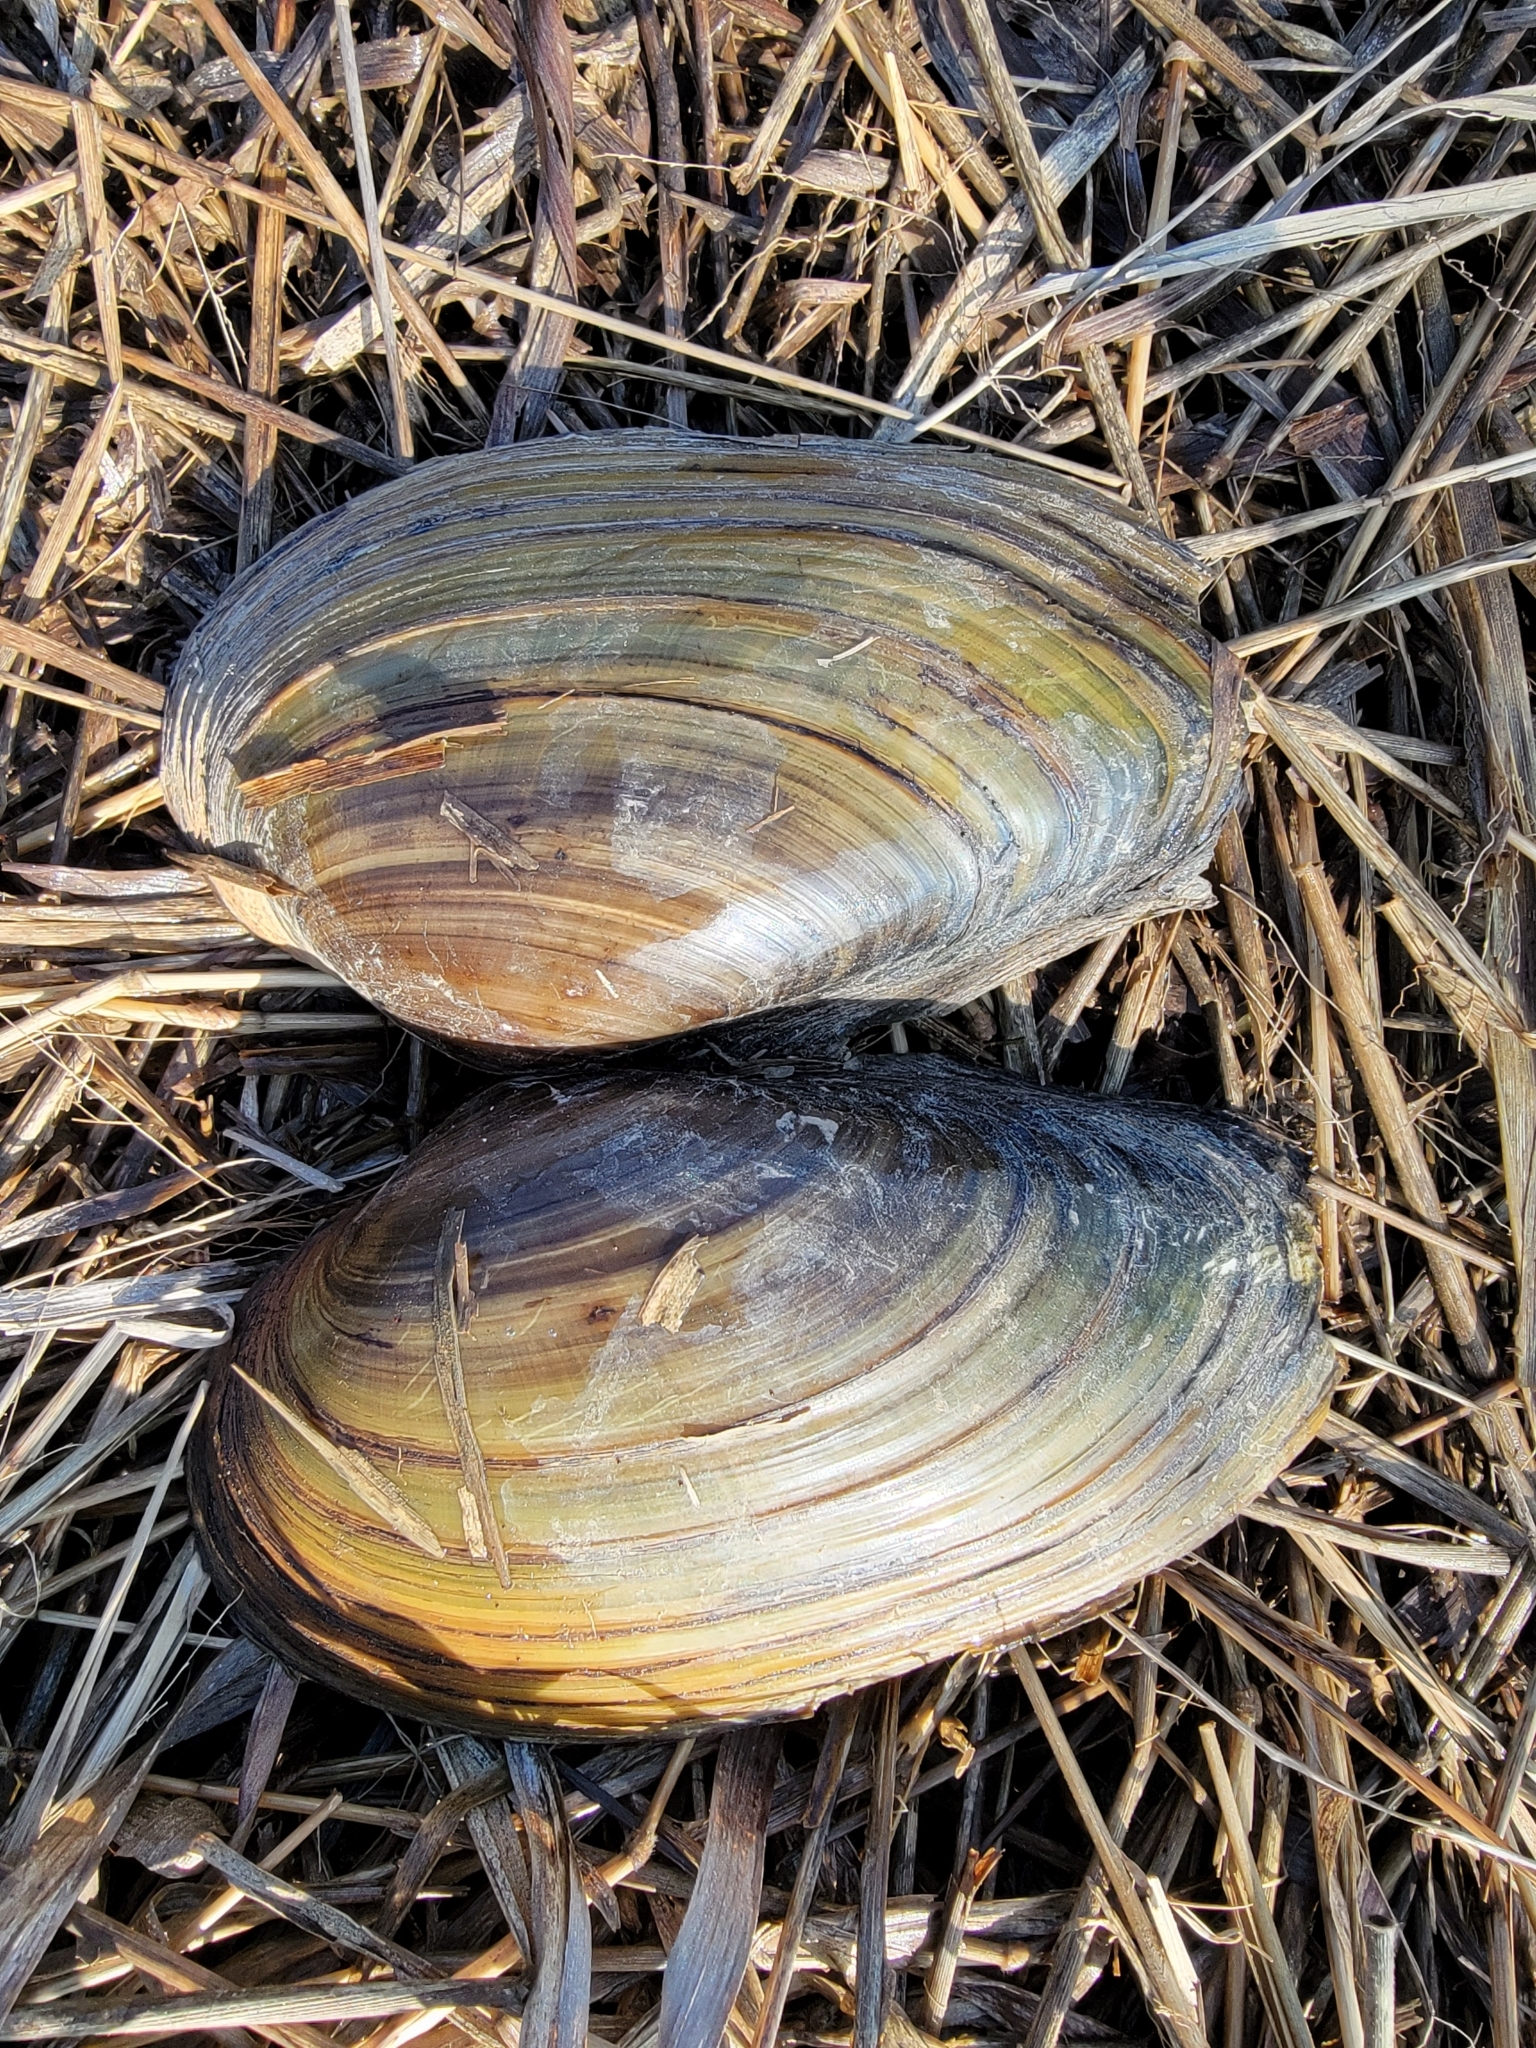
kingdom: Animalia
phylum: Mollusca
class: Bivalvia
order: Unionida
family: Unionidae
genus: Pyganodon
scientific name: Pyganodon grandis
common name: Giant floater
